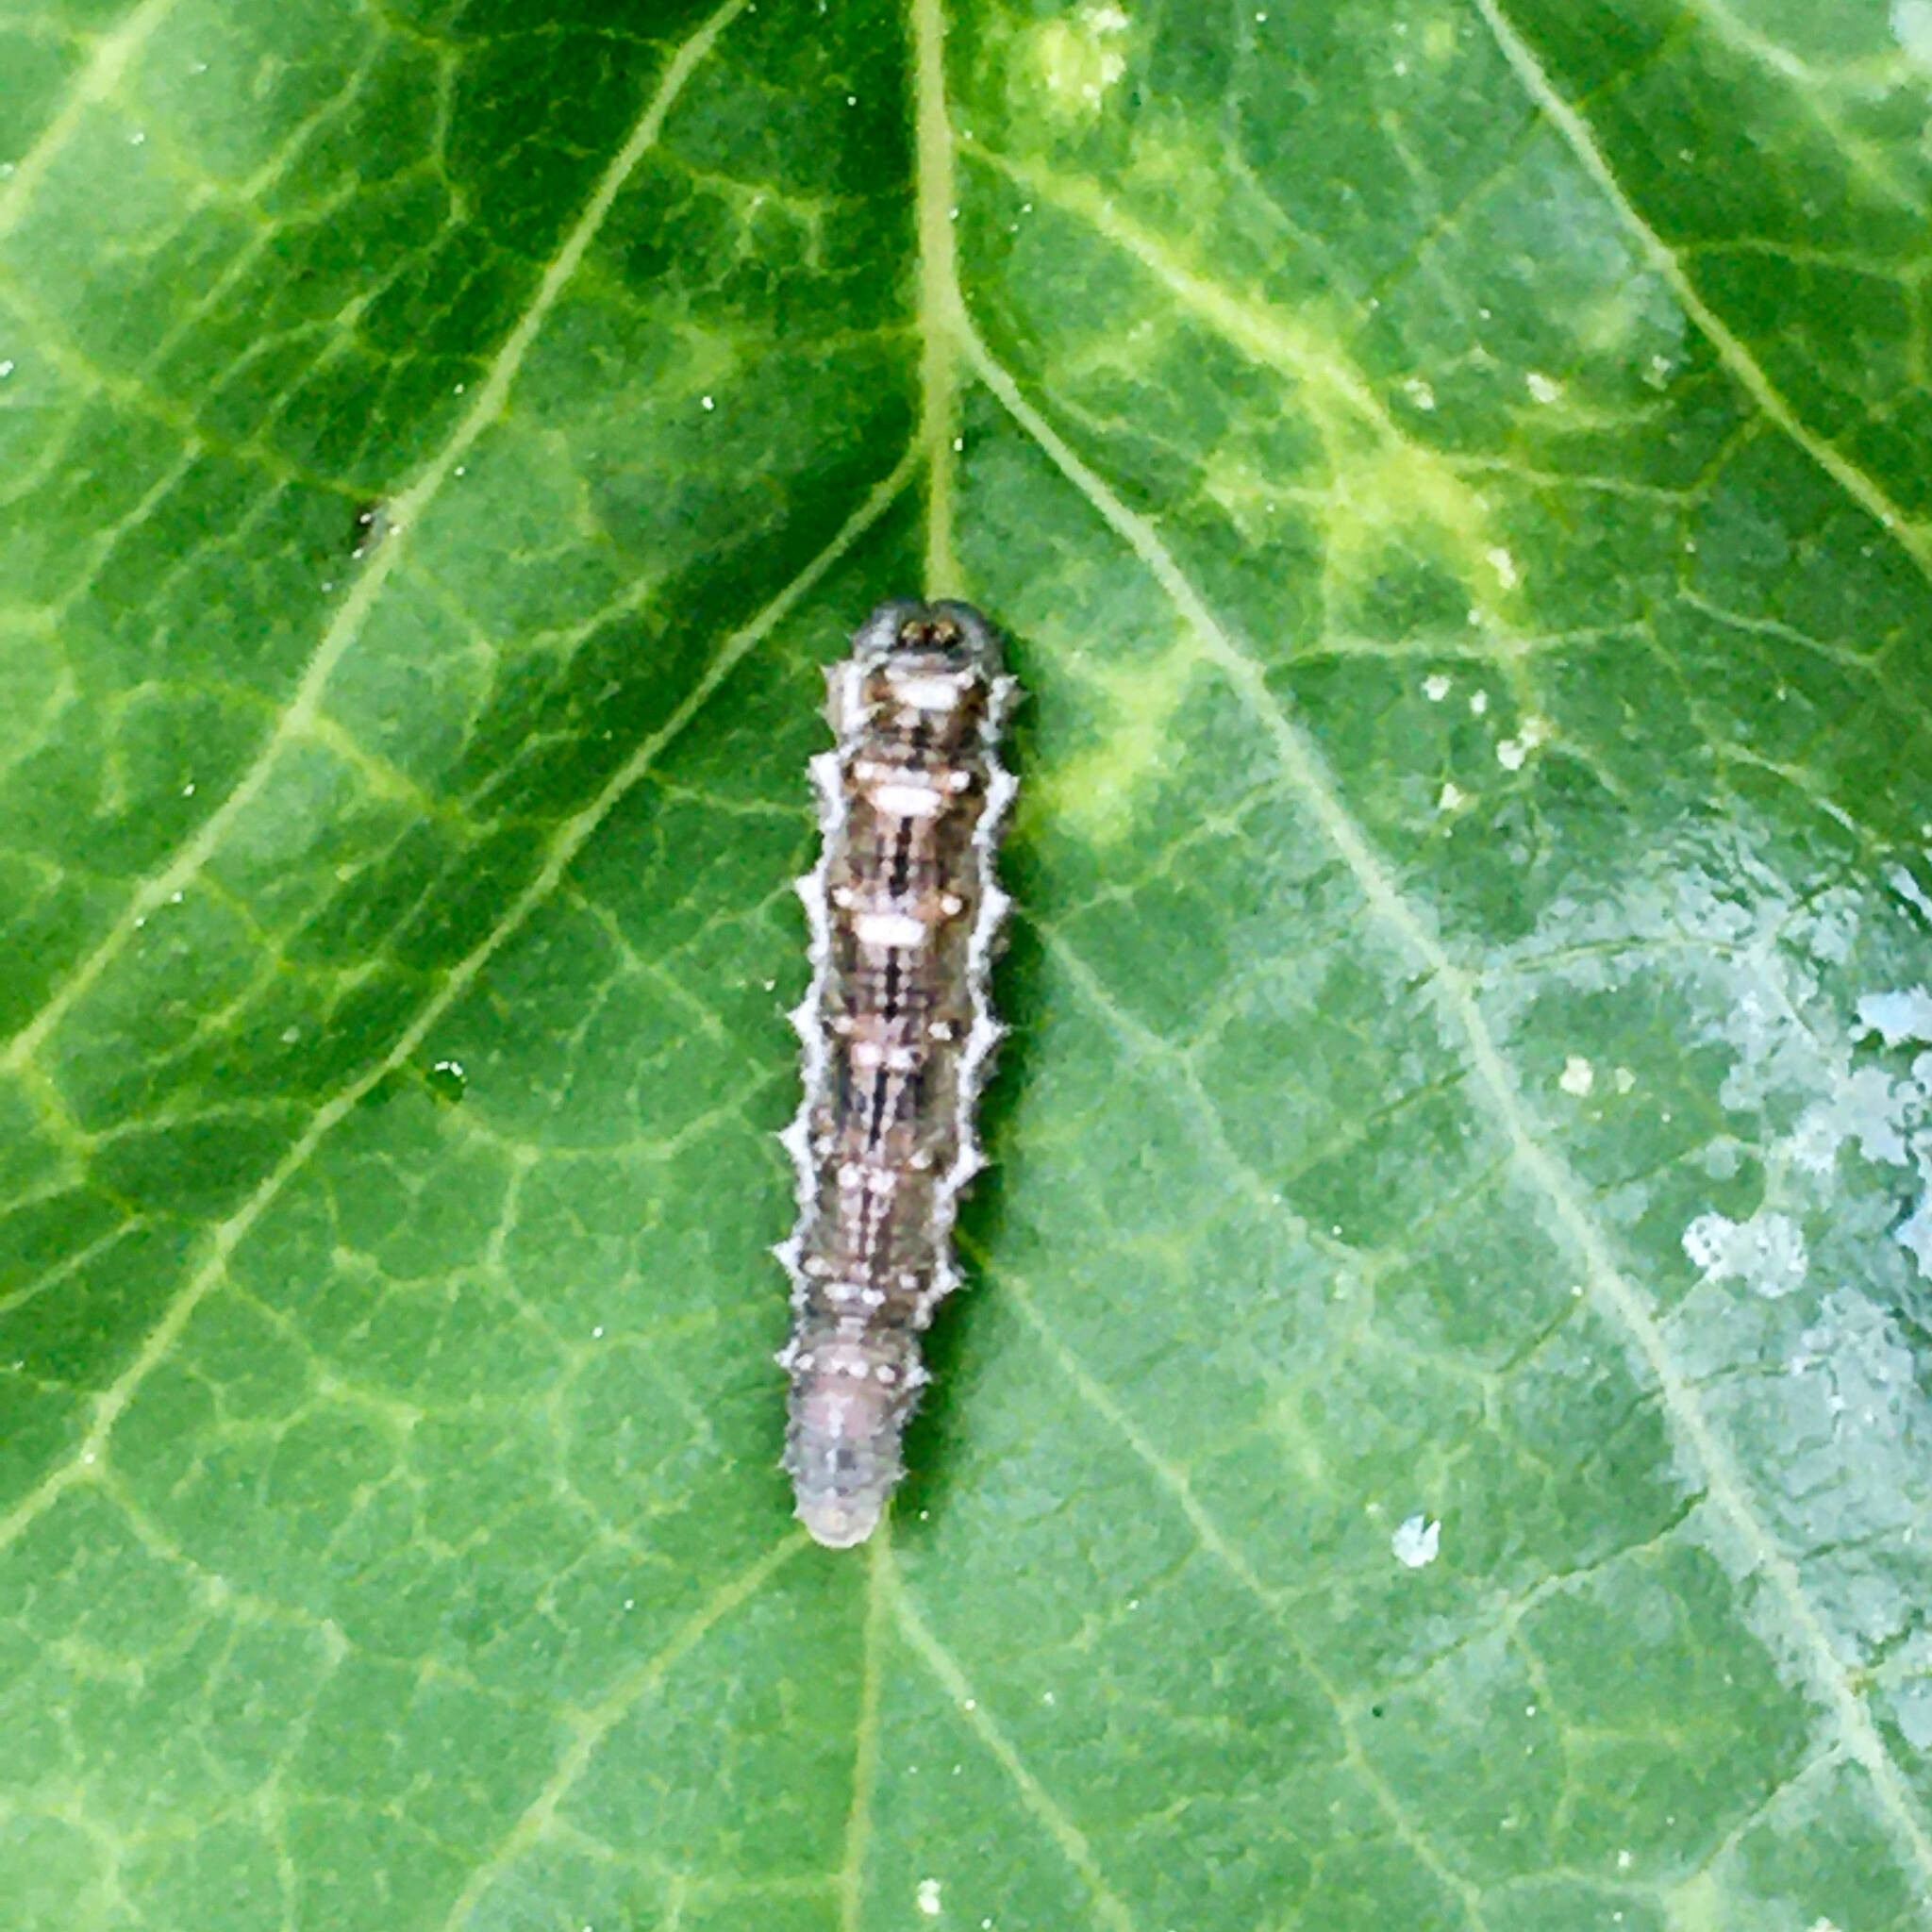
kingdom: Animalia
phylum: Arthropoda
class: Insecta
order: Diptera
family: Syrphidae
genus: Eupeodes
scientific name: Eupeodes
